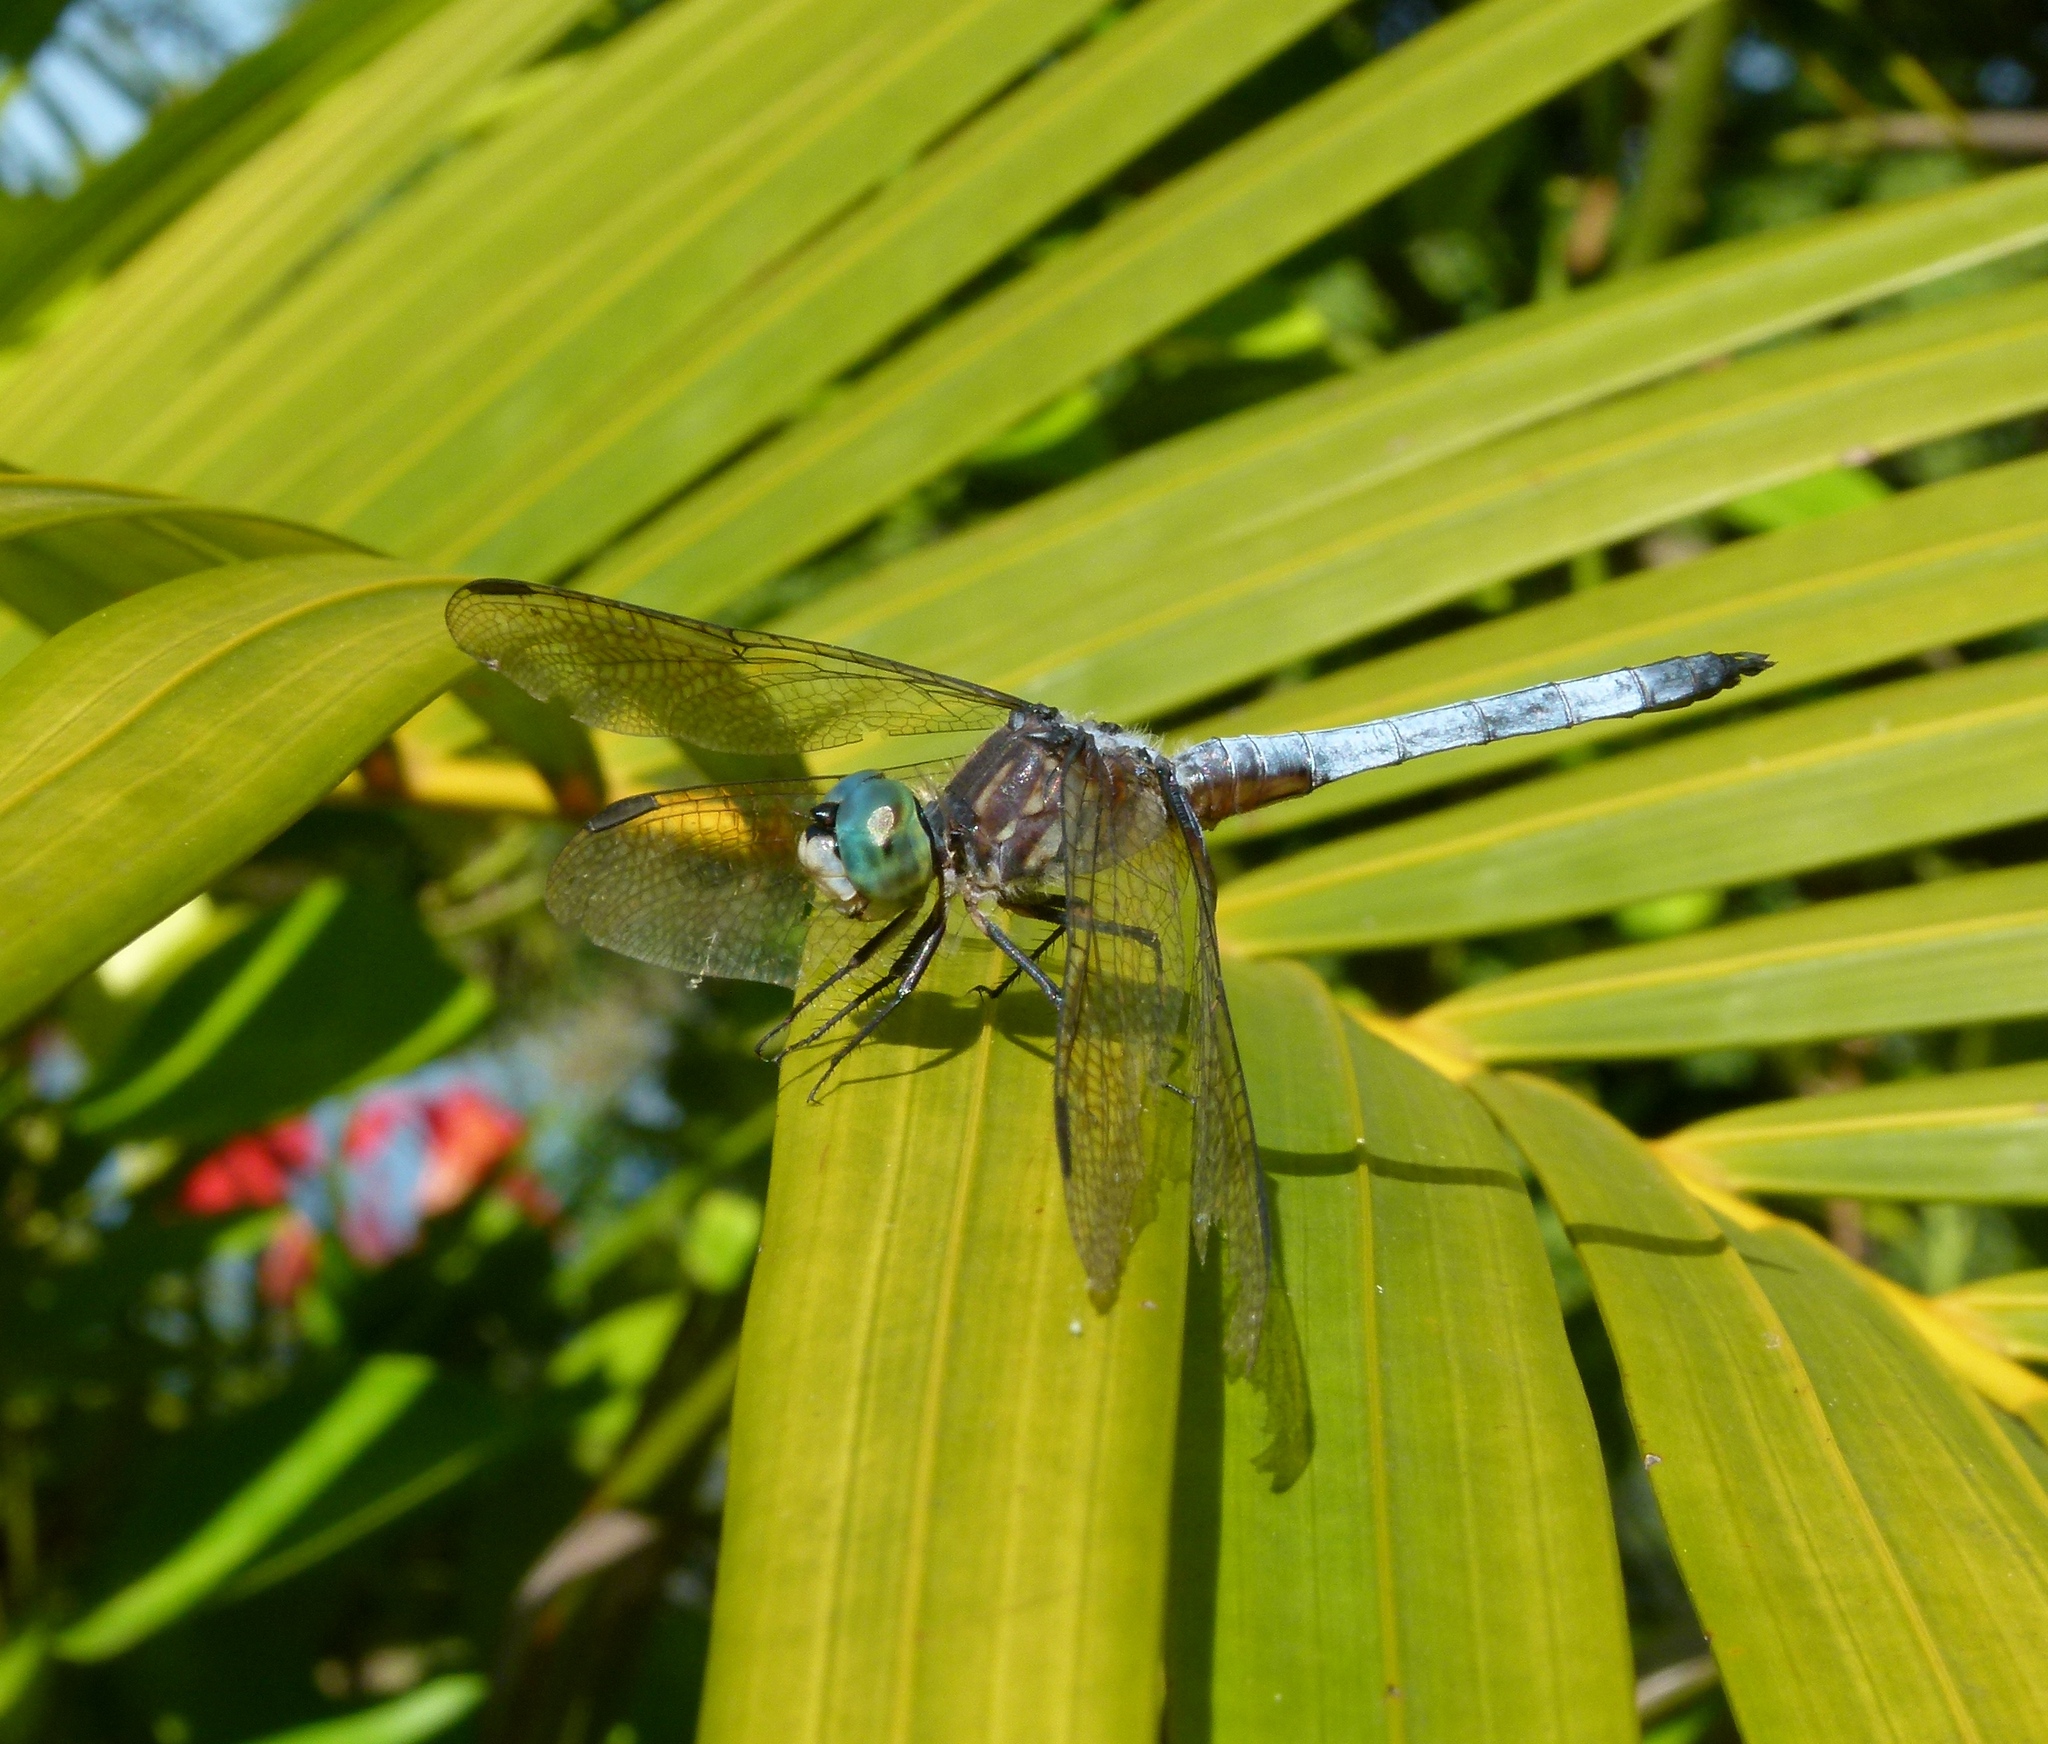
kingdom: Animalia
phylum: Arthropoda
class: Insecta
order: Odonata
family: Libellulidae
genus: Pachydiplax
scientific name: Pachydiplax longipennis
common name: Blue dasher
